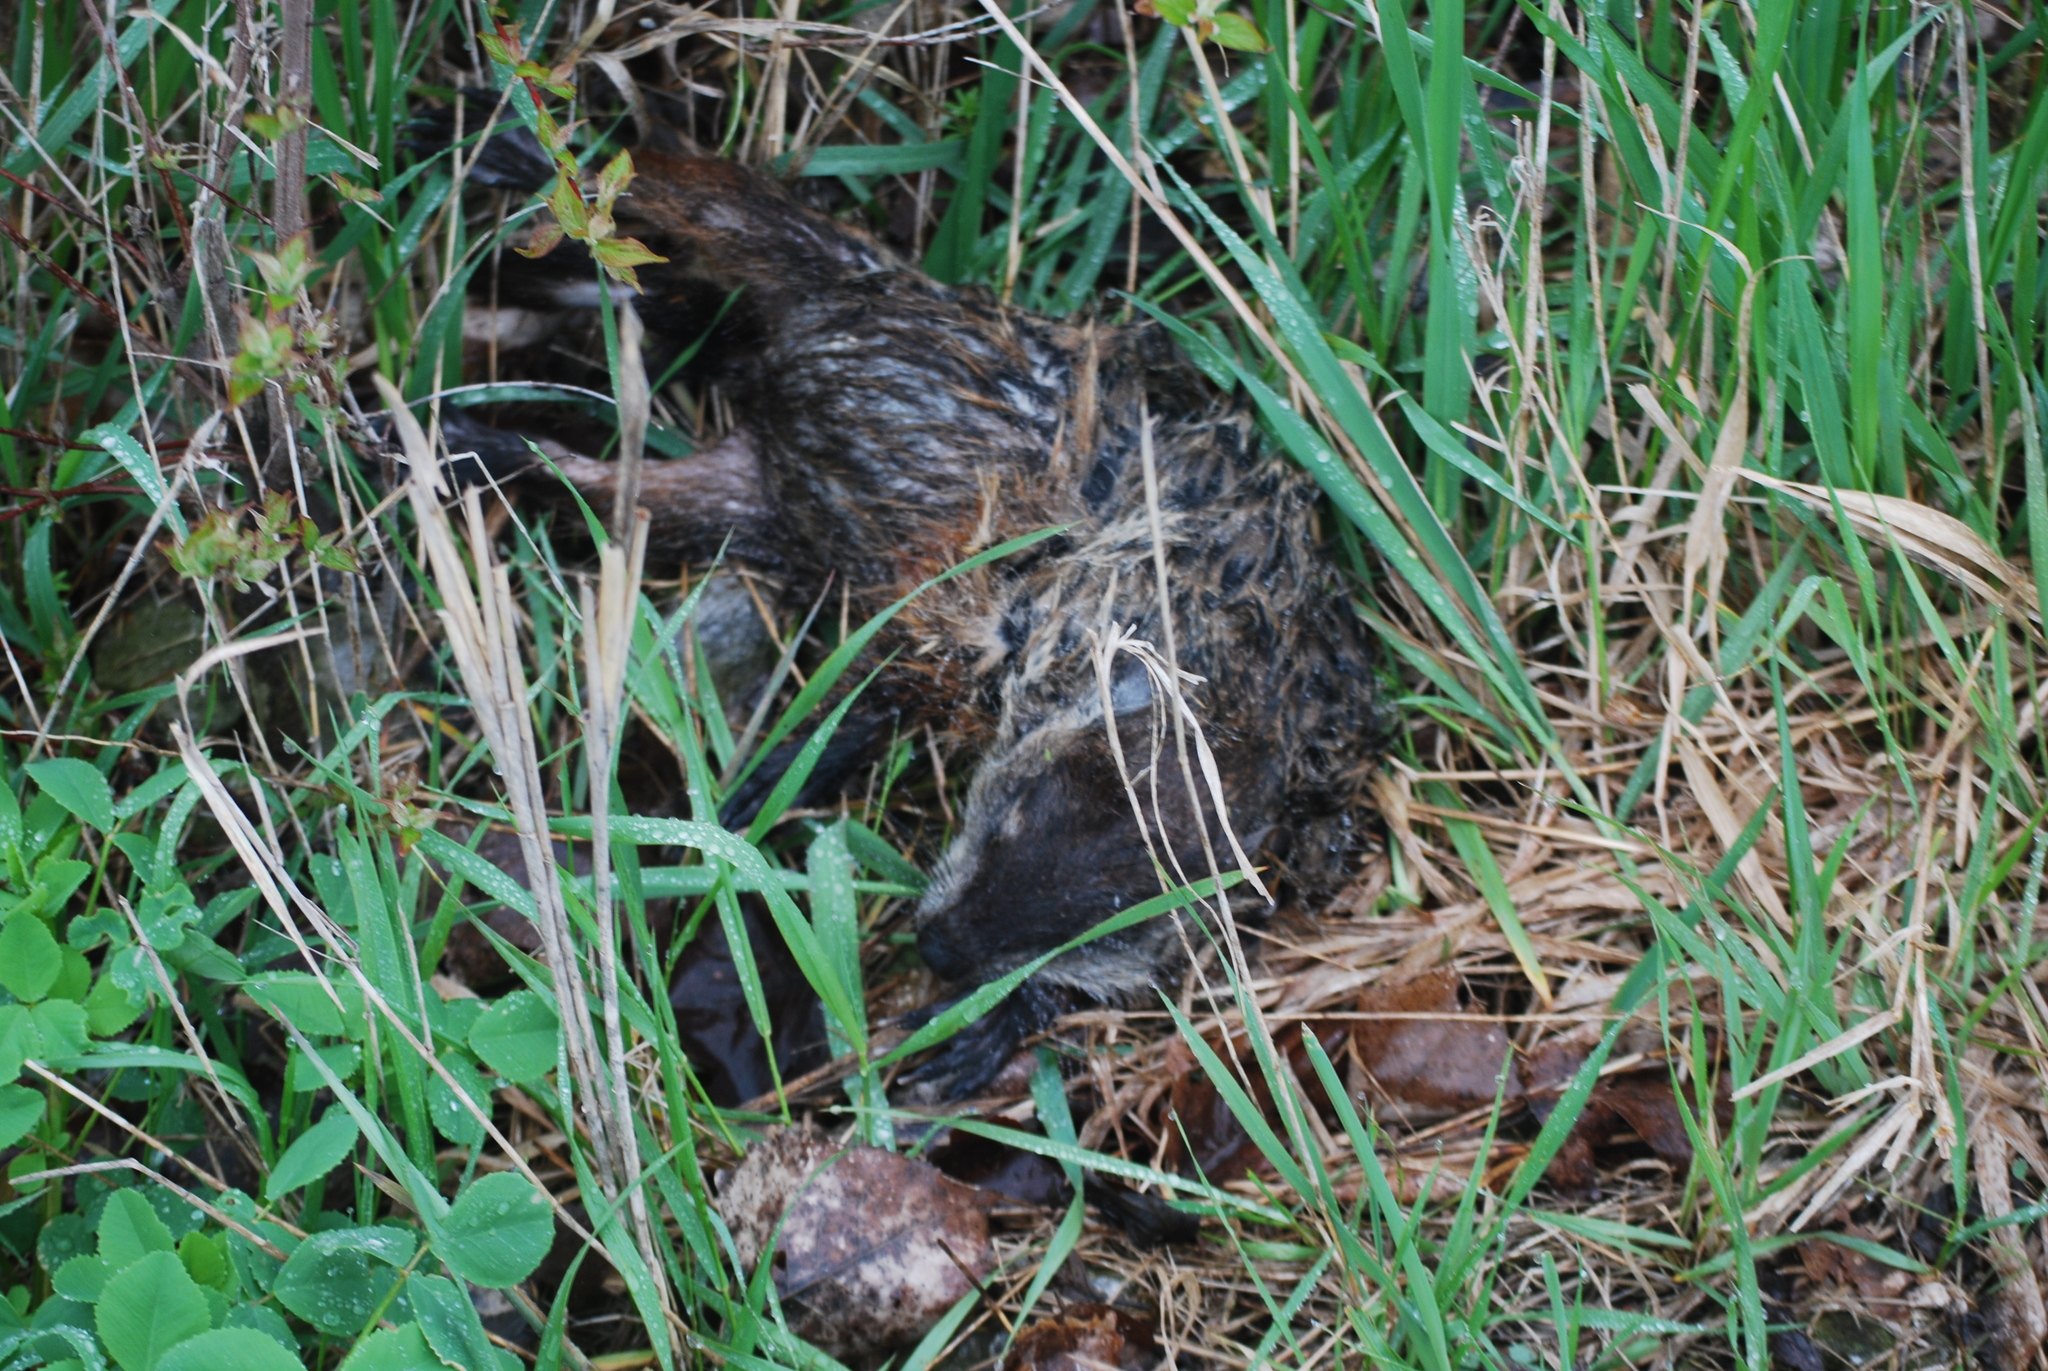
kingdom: Animalia
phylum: Chordata
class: Mammalia
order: Rodentia
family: Sciuridae
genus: Marmota
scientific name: Marmota monax
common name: Groundhog
